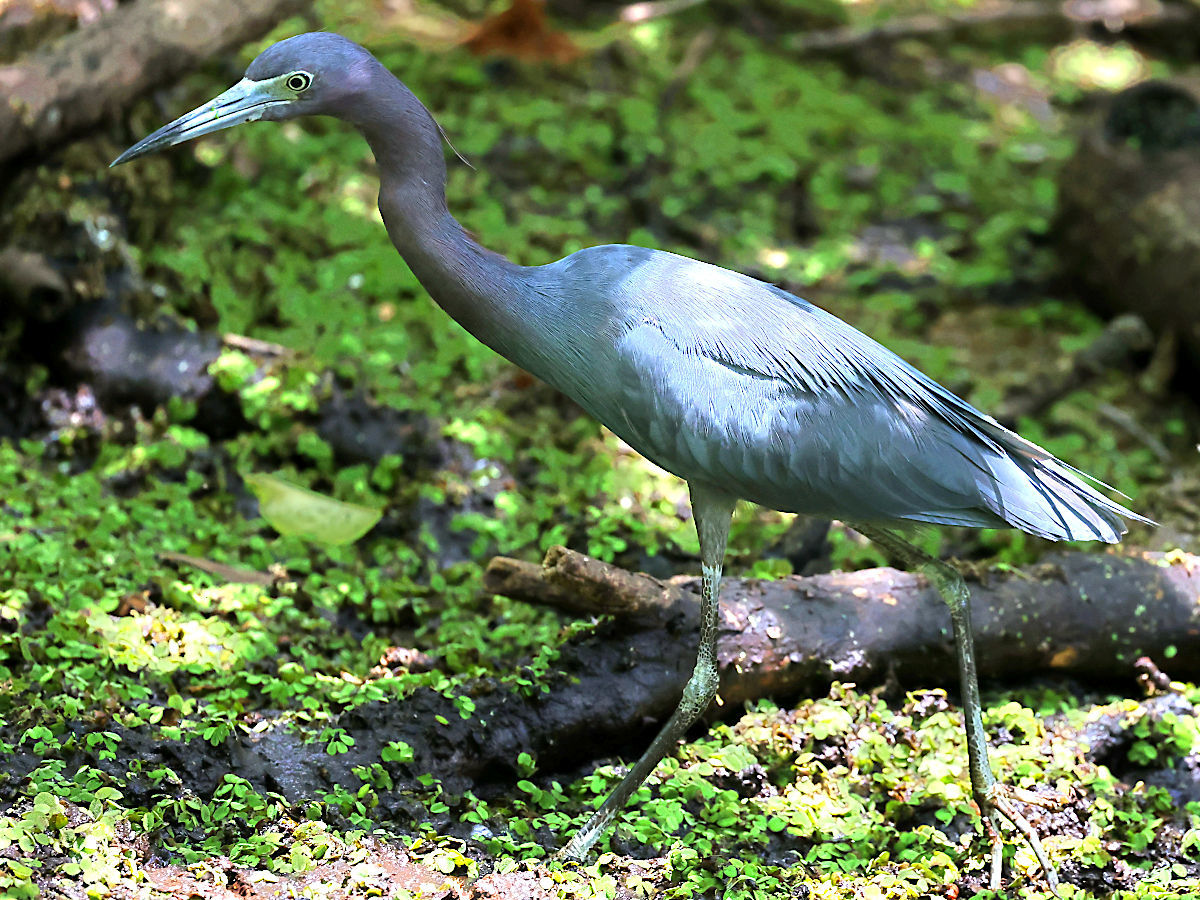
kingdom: Animalia
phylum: Chordata
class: Aves
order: Pelecaniformes
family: Ardeidae
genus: Egretta
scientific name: Egretta caerulea
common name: Little blue heron
